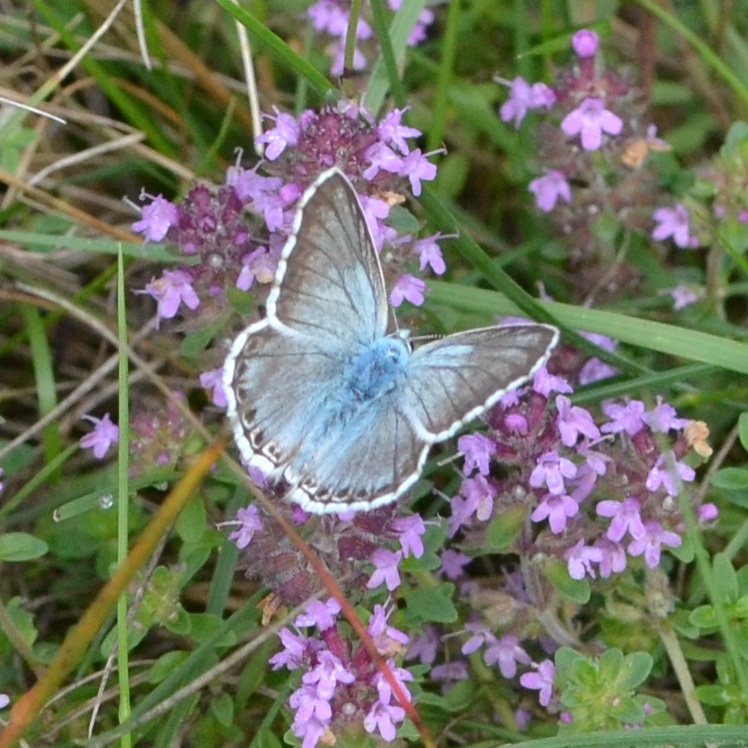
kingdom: Animalia
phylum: Arthropoda
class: Insecta
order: Lepidoptera
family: Lycaenidae
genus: Lysandra
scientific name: Lysandra coridon
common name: Chalkhill blue
